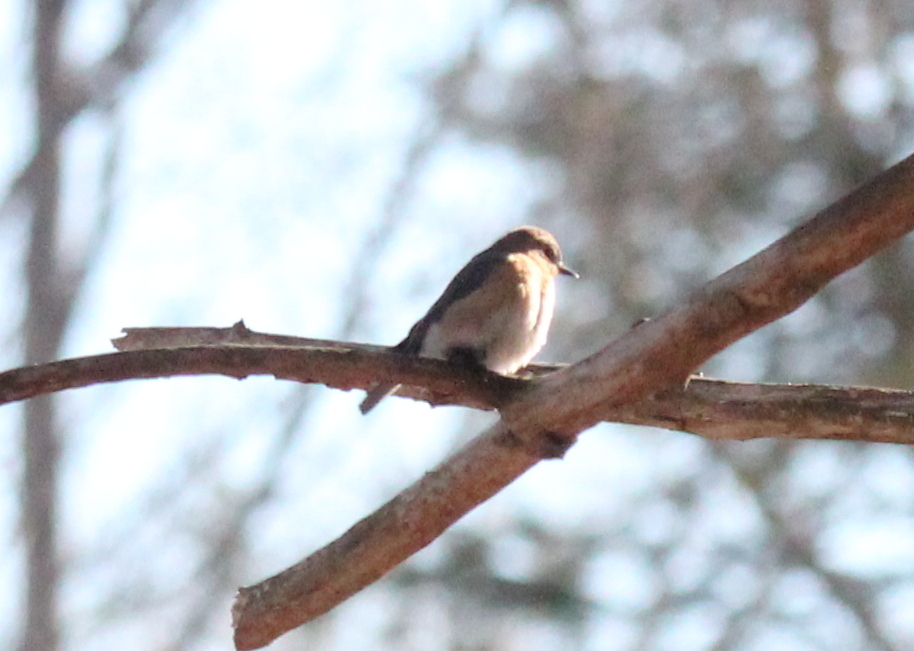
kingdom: Animalia
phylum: Chordata
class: Aves
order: Passeriformes
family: Turdidae
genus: Sialia
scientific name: Sialia sialis
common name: Eastern bluebird
